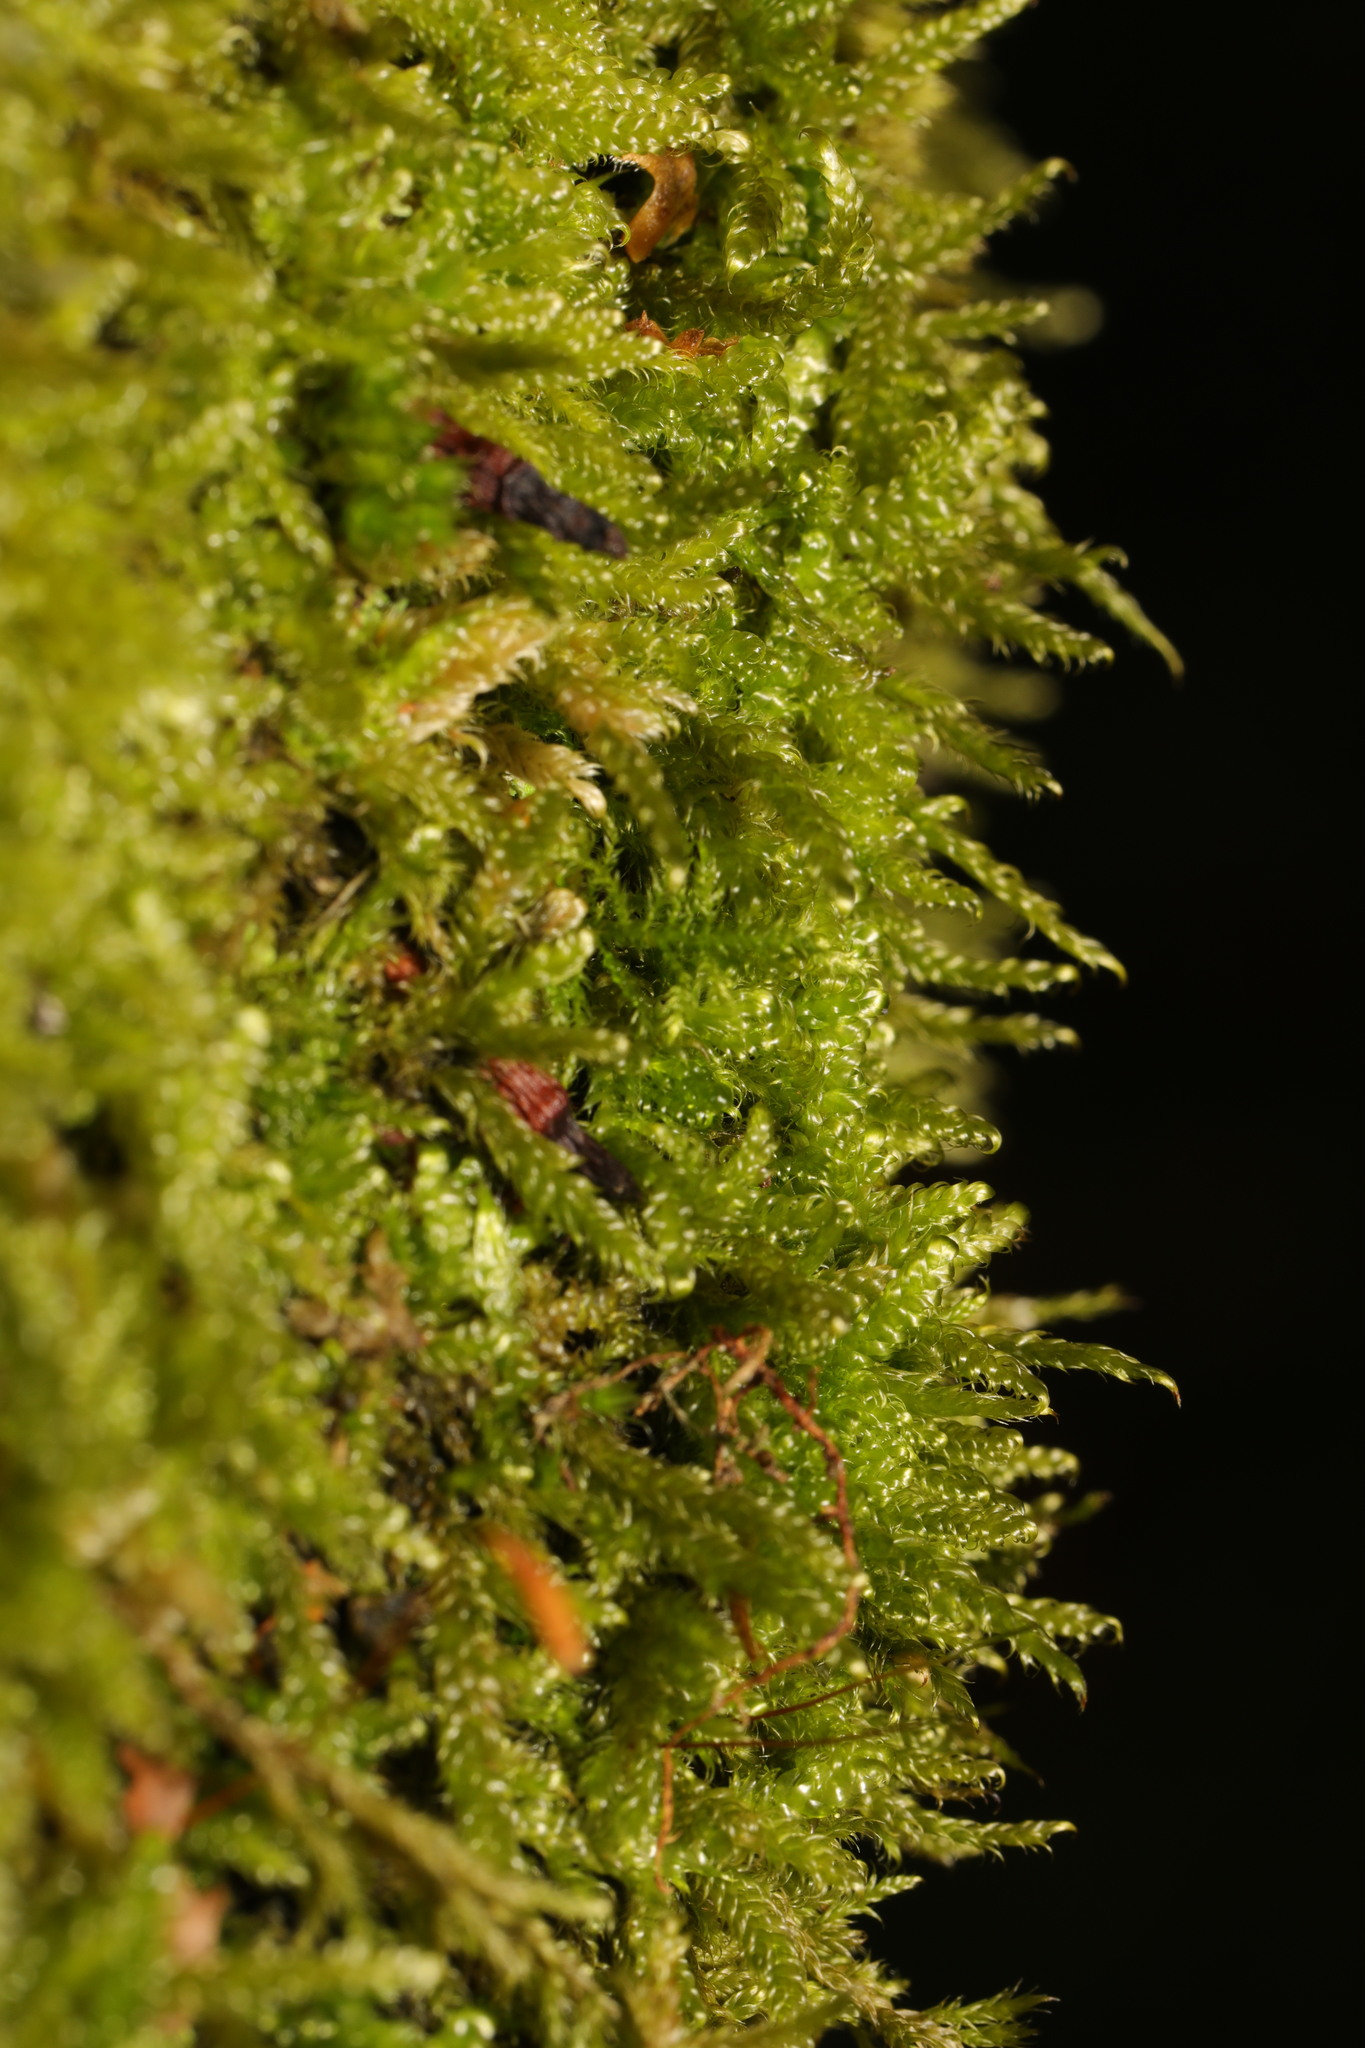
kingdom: Plantae
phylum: Bryophyta
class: Bryopsida
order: Hypnales
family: Hypnaceae
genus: Hypnum
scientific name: Hypnum cupressiforme
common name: Cypress-leaved plait-moss
